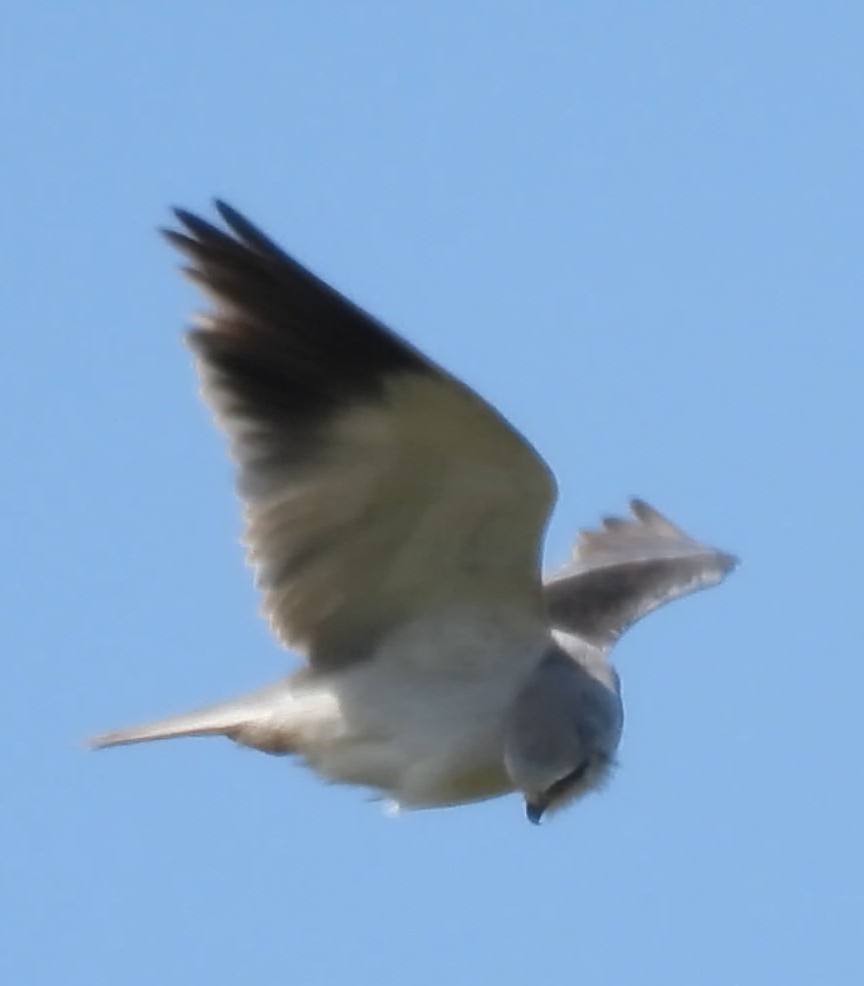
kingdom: Animalia
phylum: Chordata
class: Aves
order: Accipitriformes
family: Accipitridae
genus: Elanus
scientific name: Elanus caeruleus
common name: Black-winged kite
